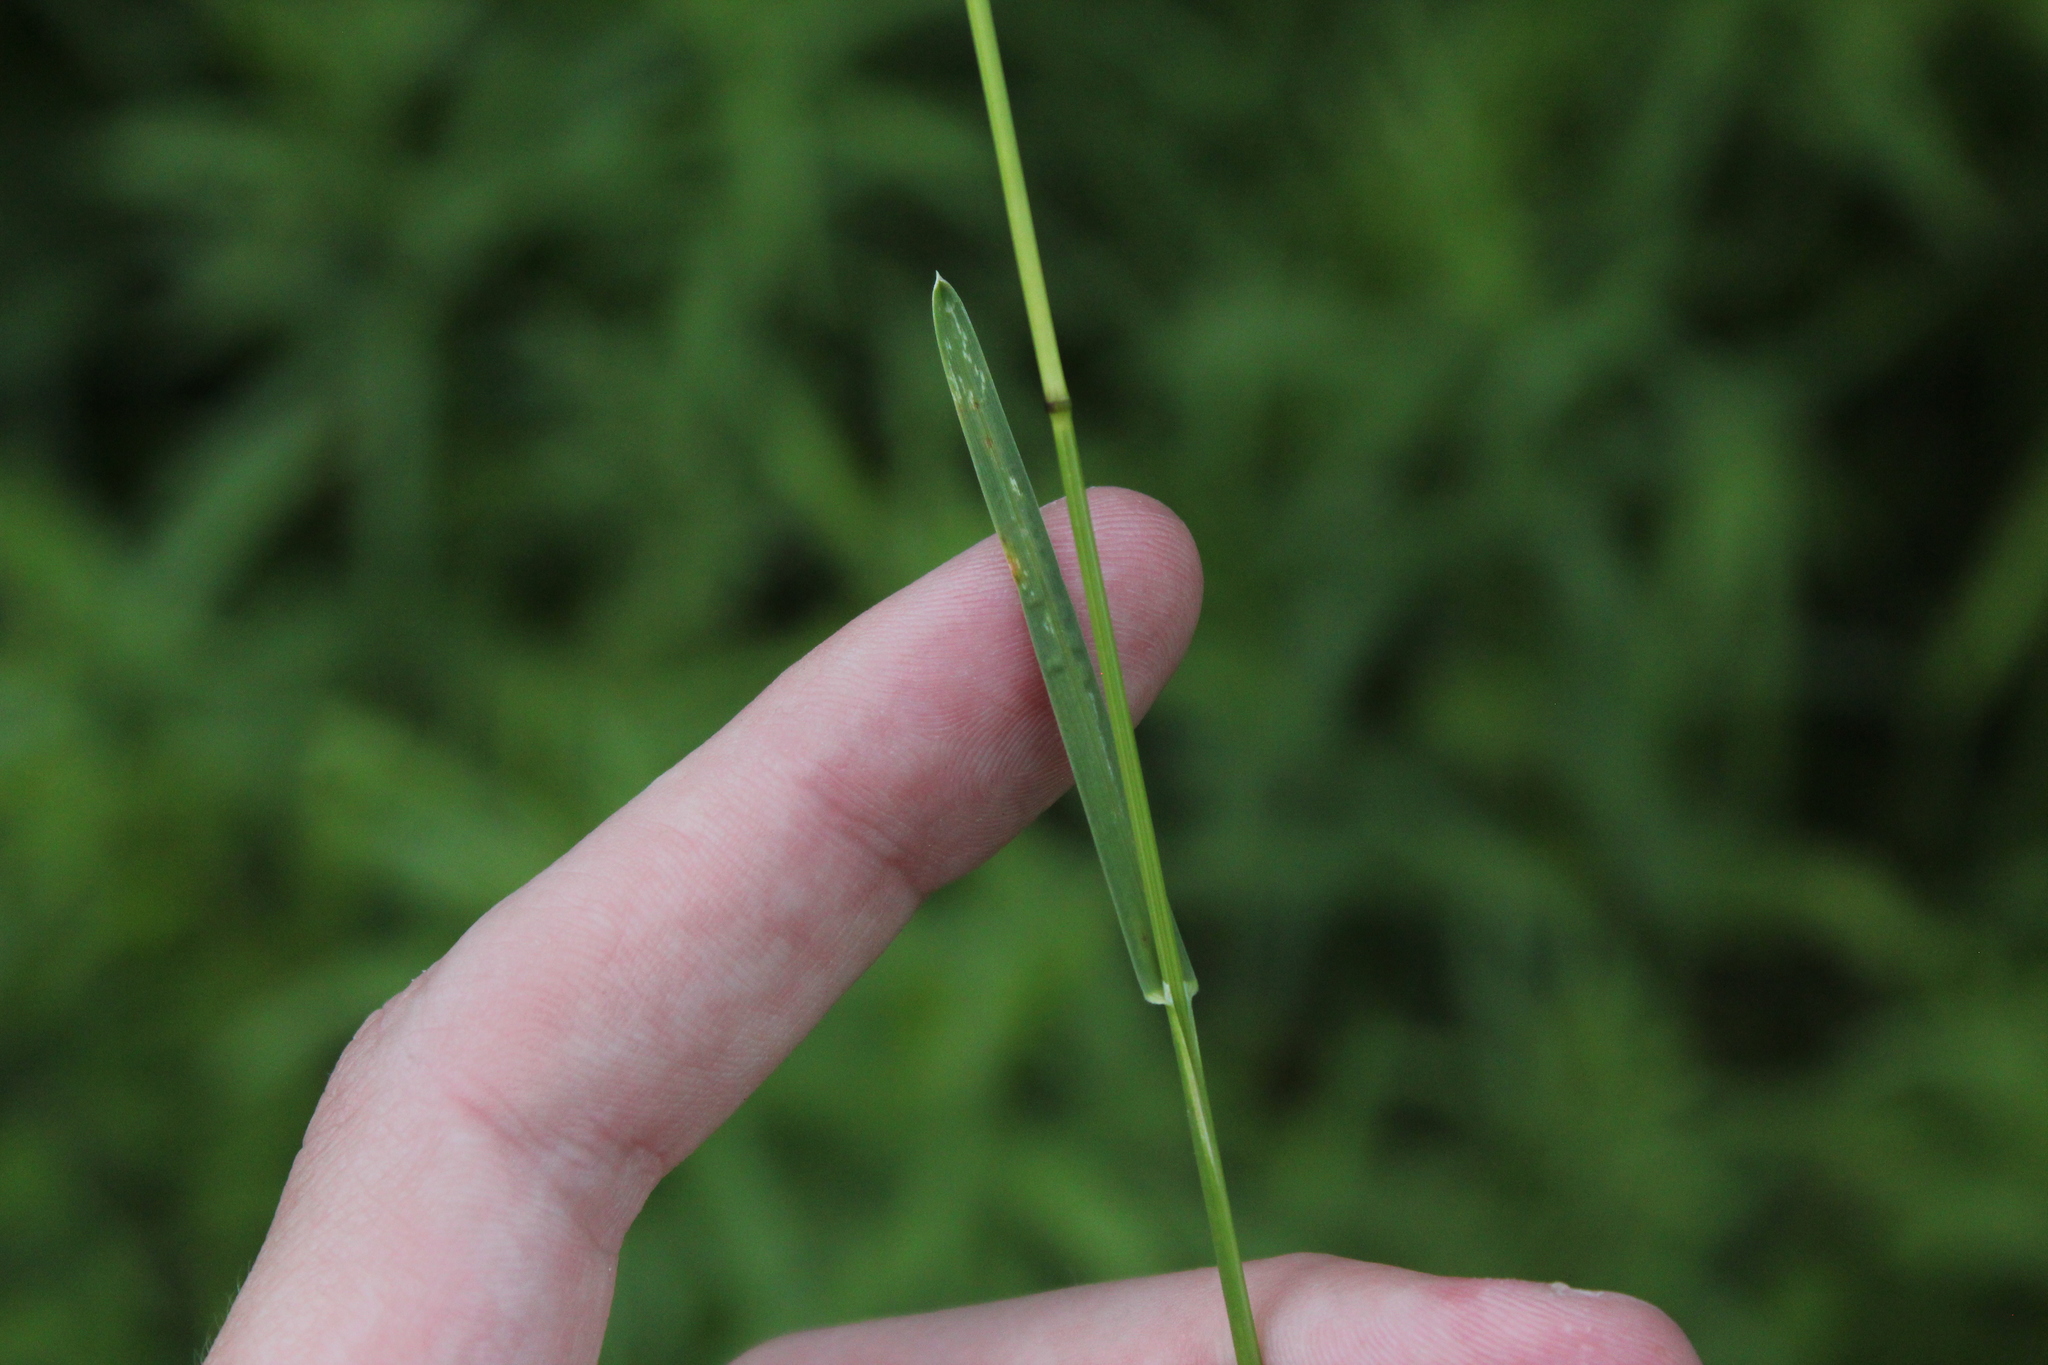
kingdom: Plantae
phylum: Tracheophyta
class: Liliopsida
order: Poales
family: Poaceae
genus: Poa
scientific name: Poa pratensis
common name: Kentucky bluegrass
